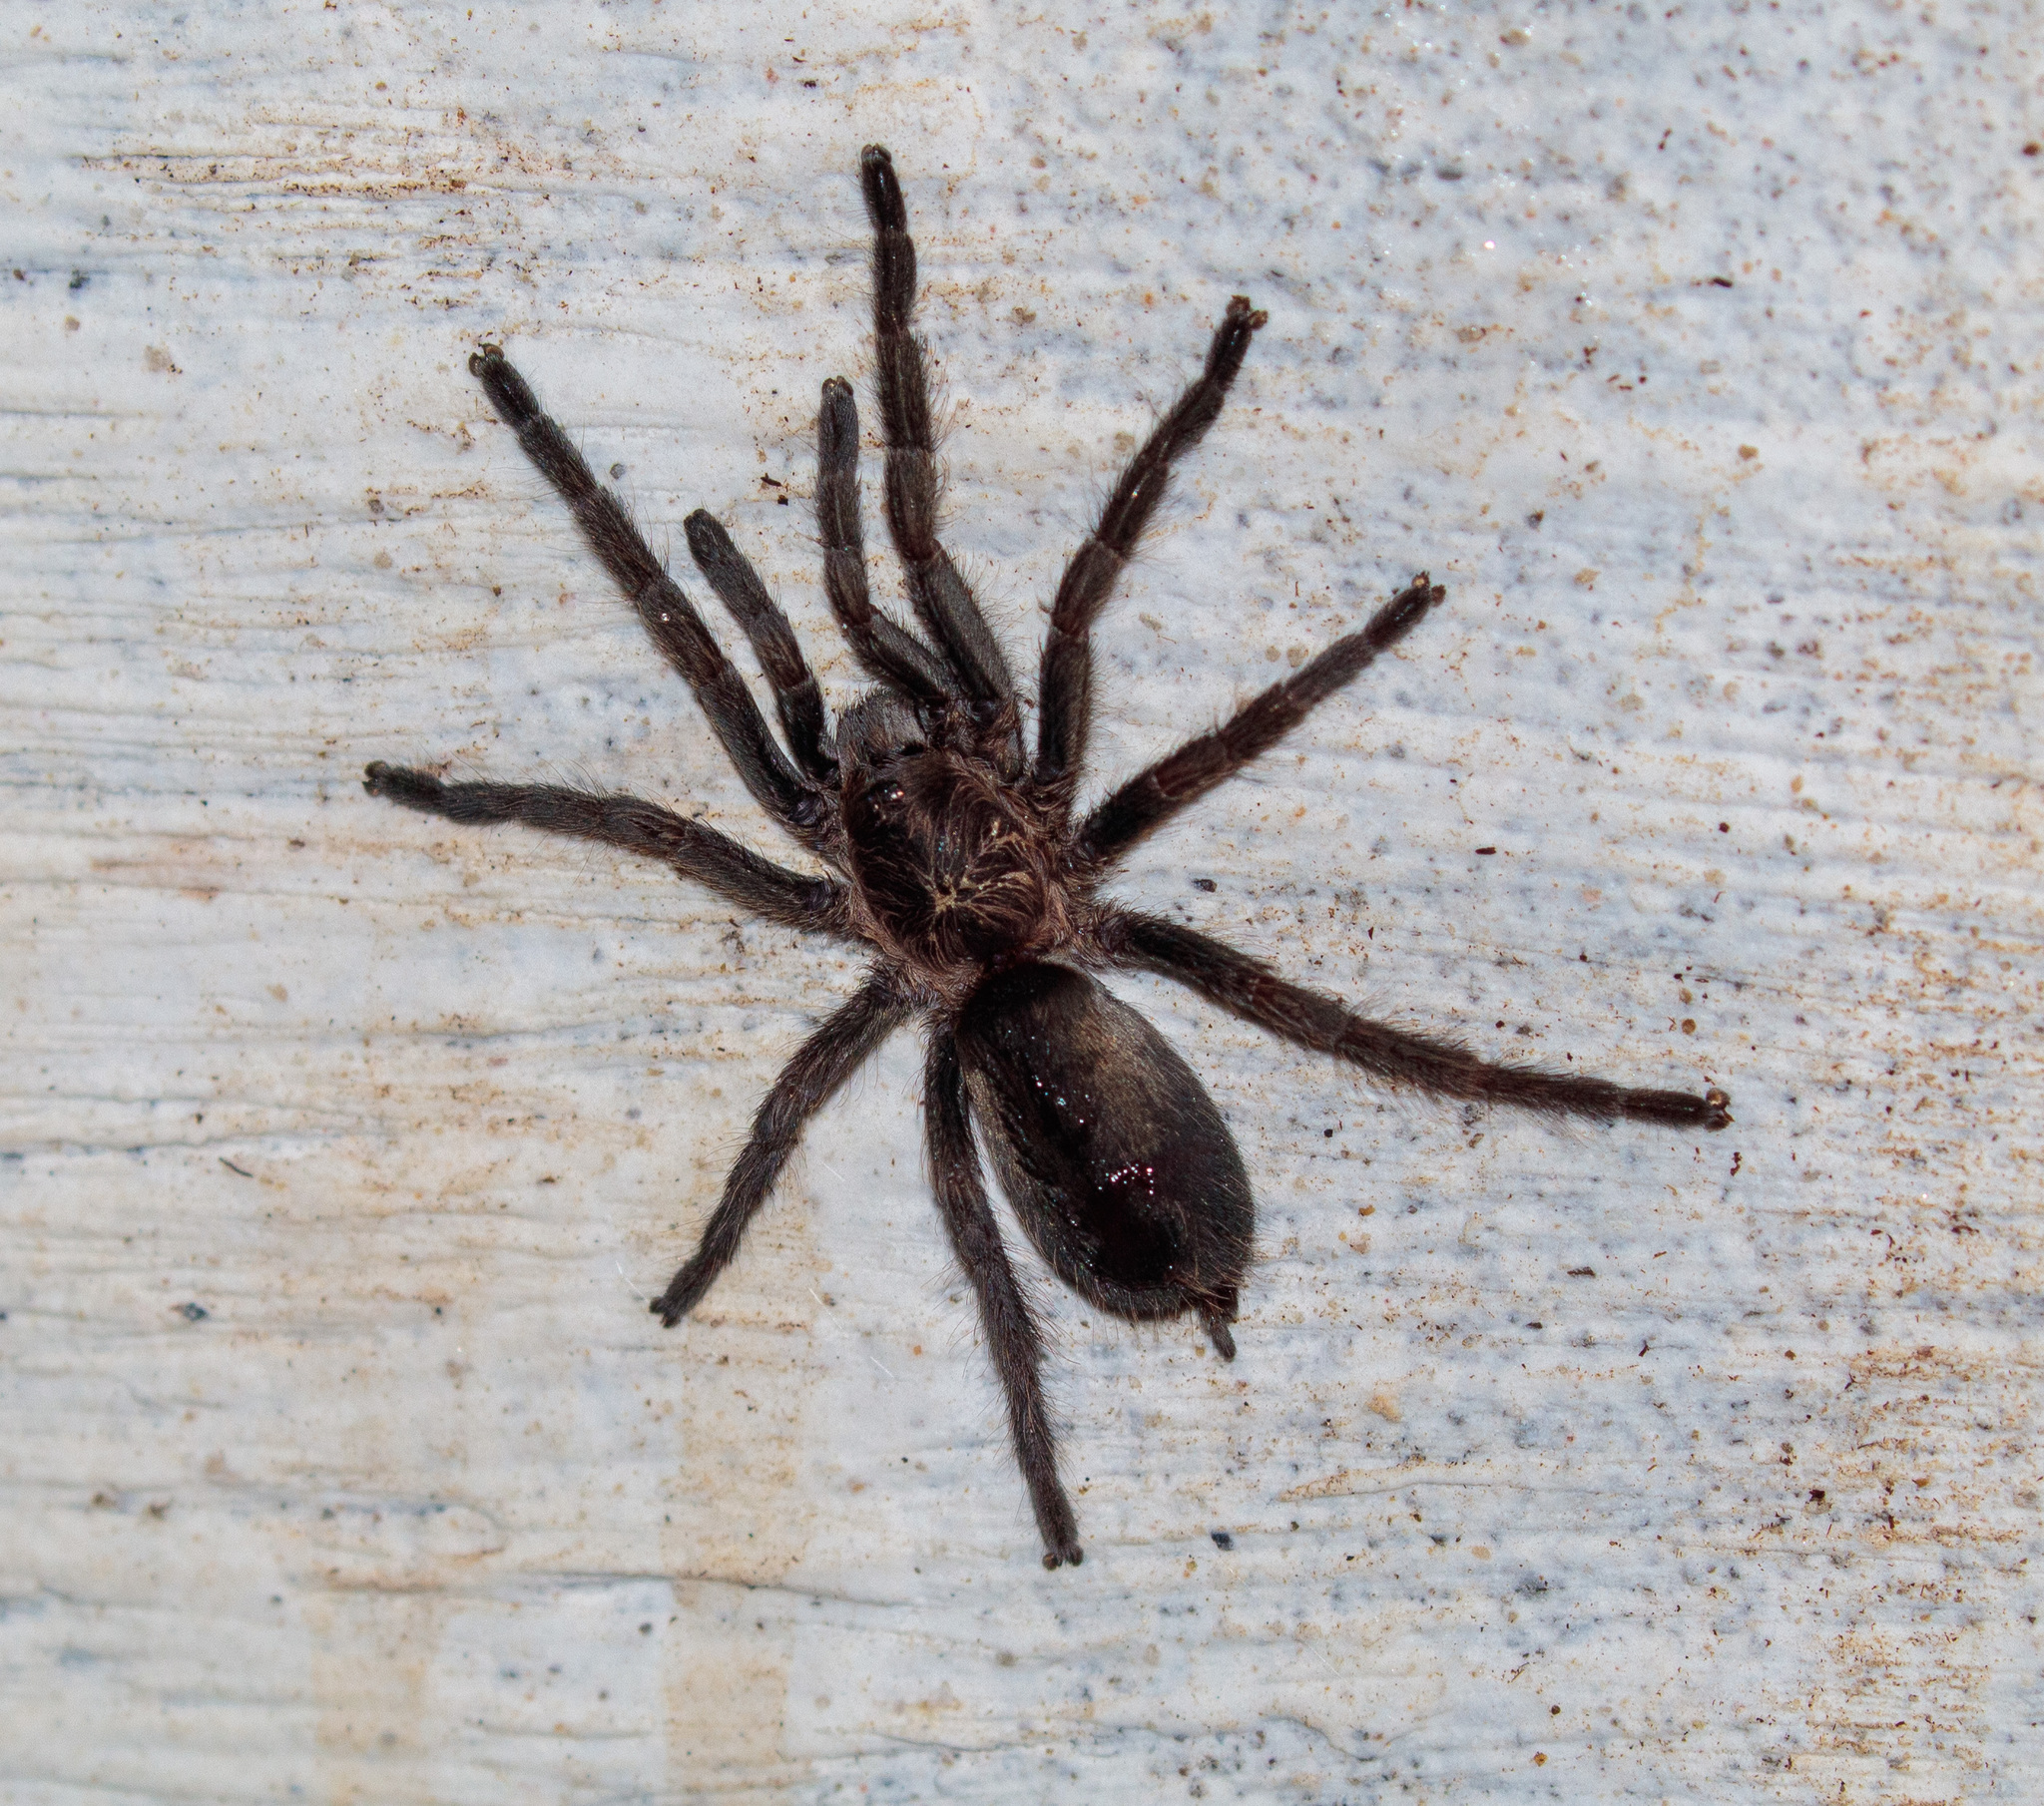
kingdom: Animalia
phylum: Arthropoda
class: Arachnida
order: Araneae
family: Theraphosidae
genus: Dolichothele
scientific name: Dolichothele exilis
